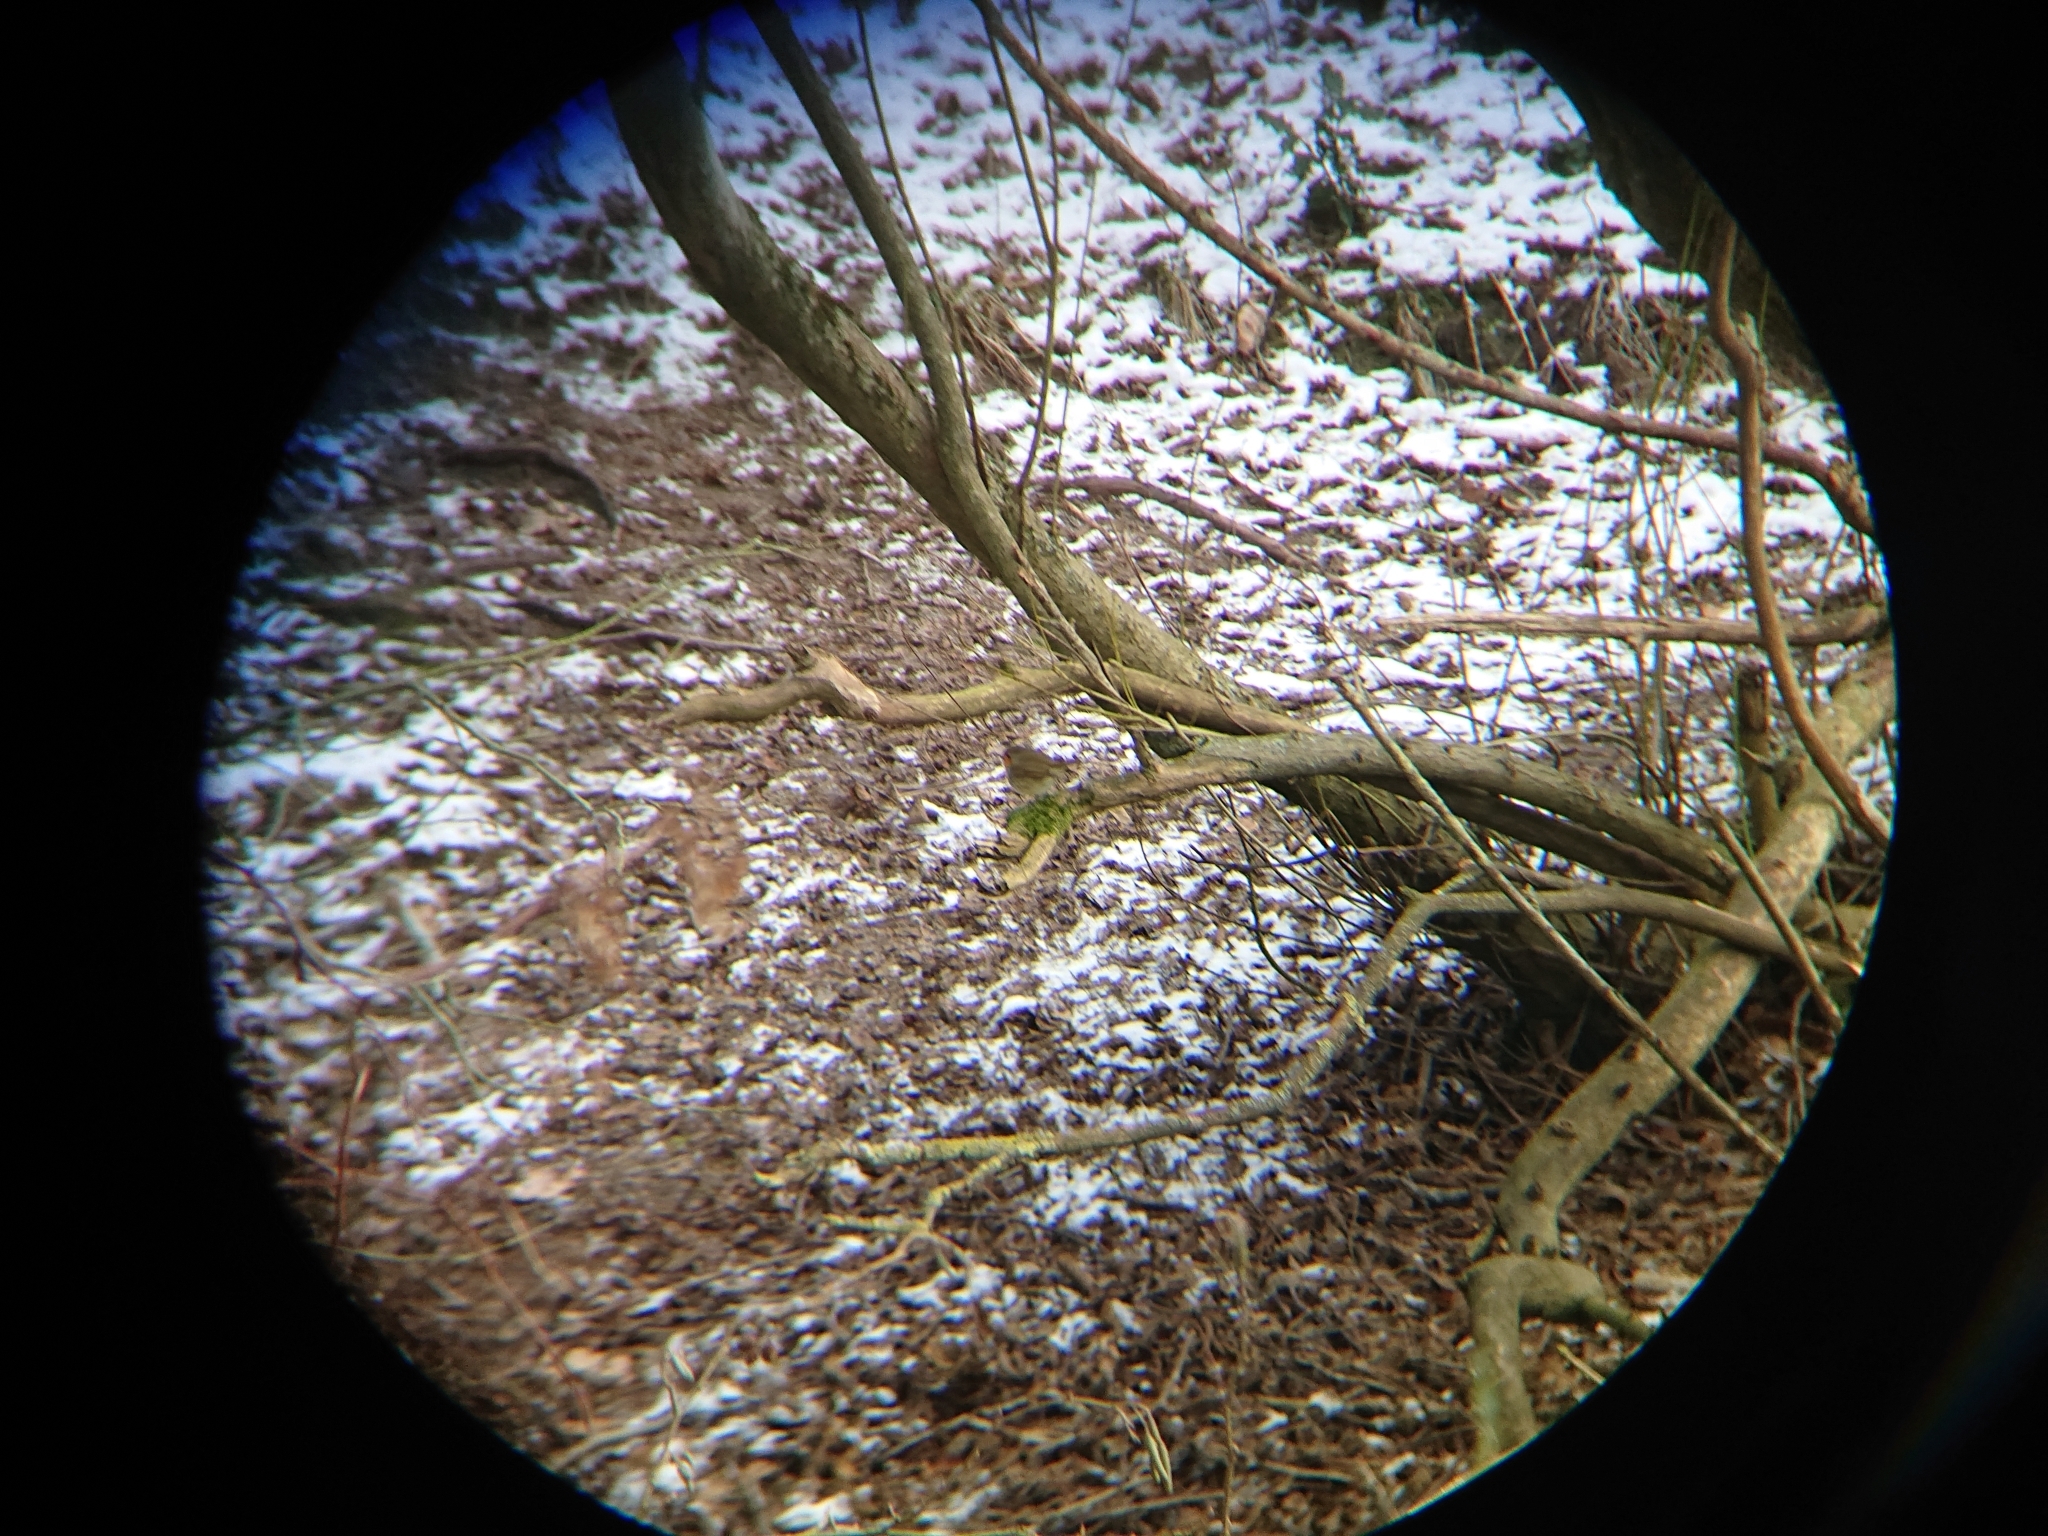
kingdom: Animalia
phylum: Chordata
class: Aves
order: Passeriformes
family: Muscicapidae
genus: Erithacus
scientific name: Erithacus rubecula
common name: European robin
